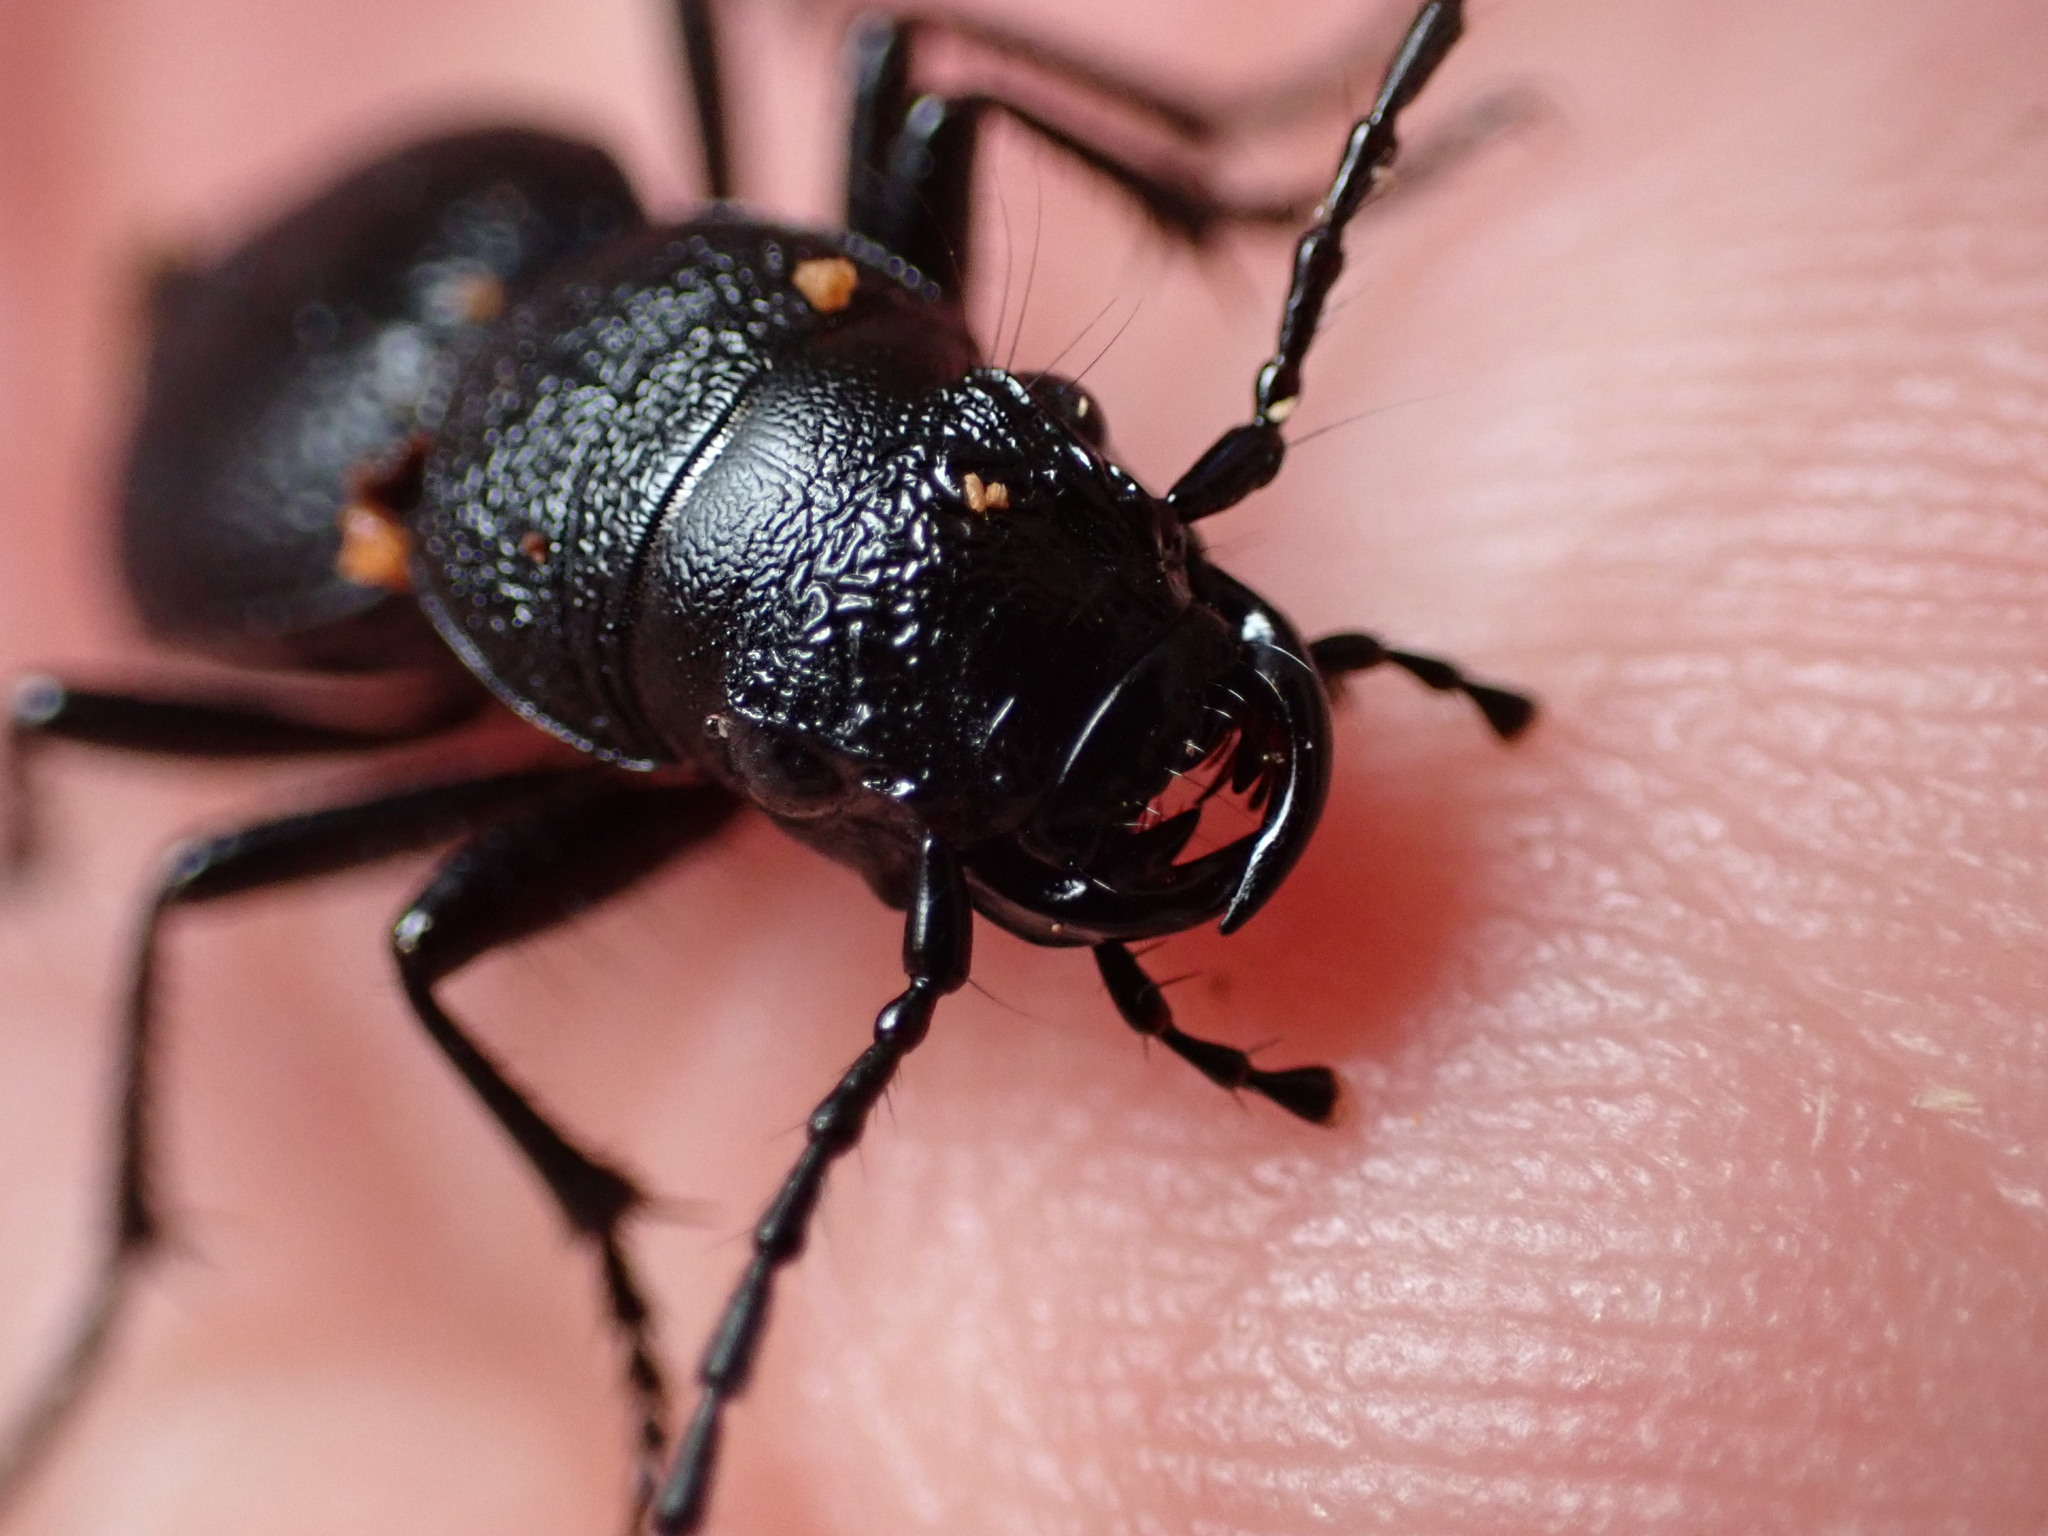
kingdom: Animalia
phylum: Arthropoda
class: Insecta
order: Coleoptera
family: Carabidae
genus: Omus
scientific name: Omus californicus
